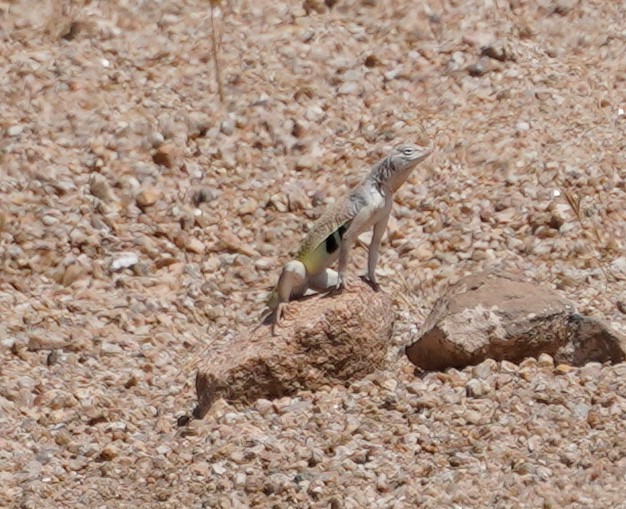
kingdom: Animalia
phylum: Chordata
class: Squamata
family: Phrynosomatidae
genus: Callisaurus
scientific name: Callisaurus draconoides
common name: Zebra-tailed lizard
